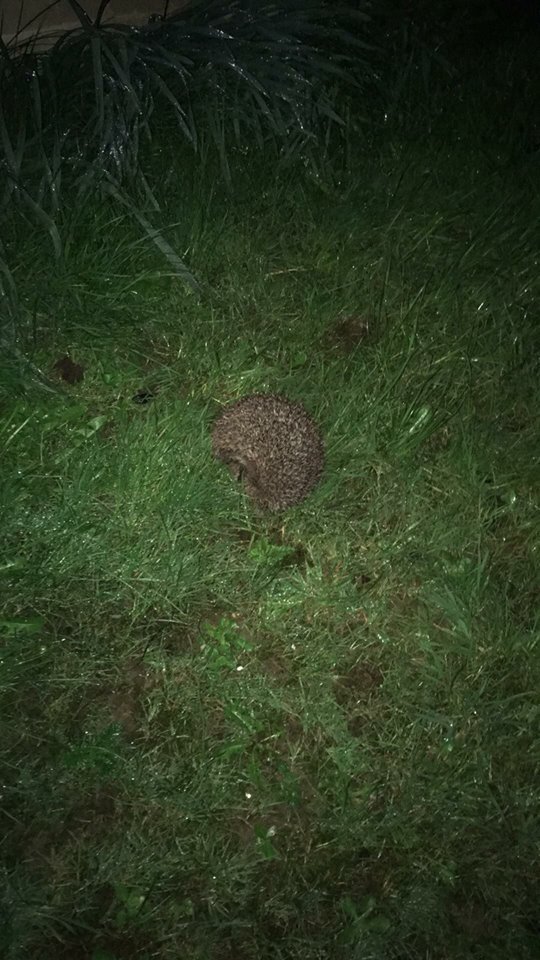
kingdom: Animalia
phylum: Chordata
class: Mammalia
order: Erinaceomorpha
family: Erinaceidae
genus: Erinaceus
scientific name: Erinaceus europaeus
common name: West european hedgehog
